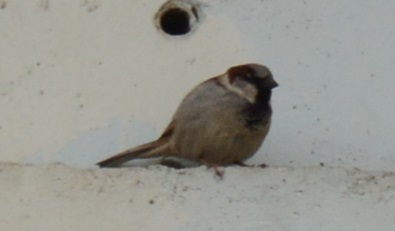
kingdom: Animalia
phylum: Chordata
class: Aves
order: Passeriformes
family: Passeridae
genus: Passer
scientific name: Passer domesticus
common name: House sparrow
